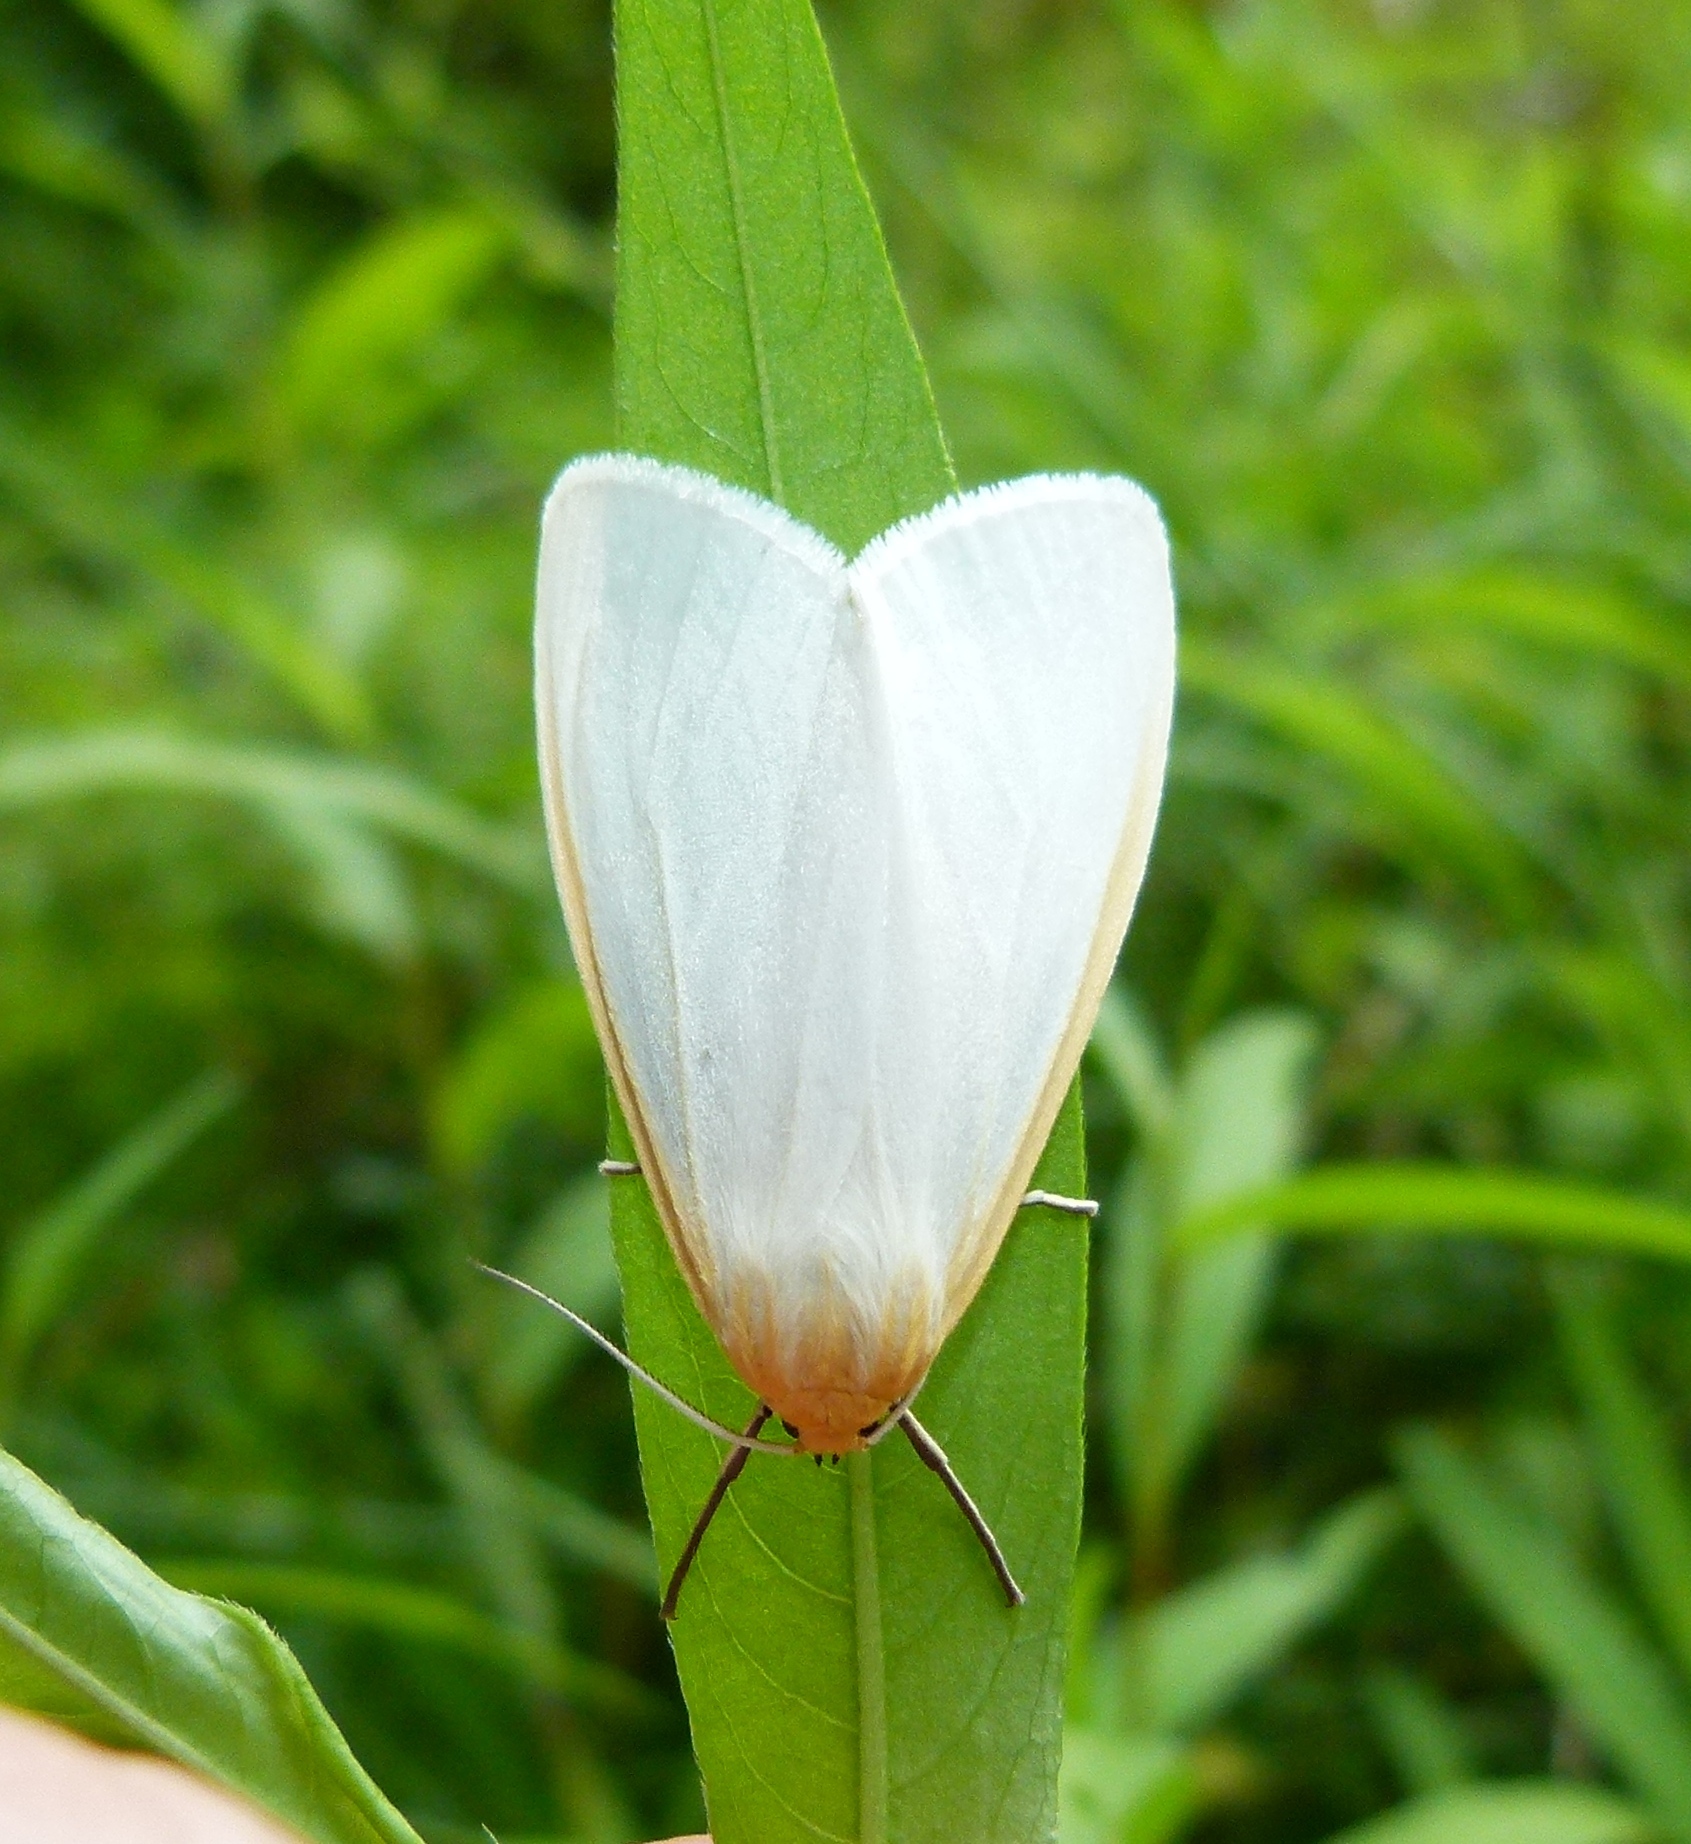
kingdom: Animalia
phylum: Arthropoda
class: Insecta
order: Lepidoptera
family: Erebidae
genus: Cycnia
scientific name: Cycnia tenera
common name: Delicate cycnia moth
